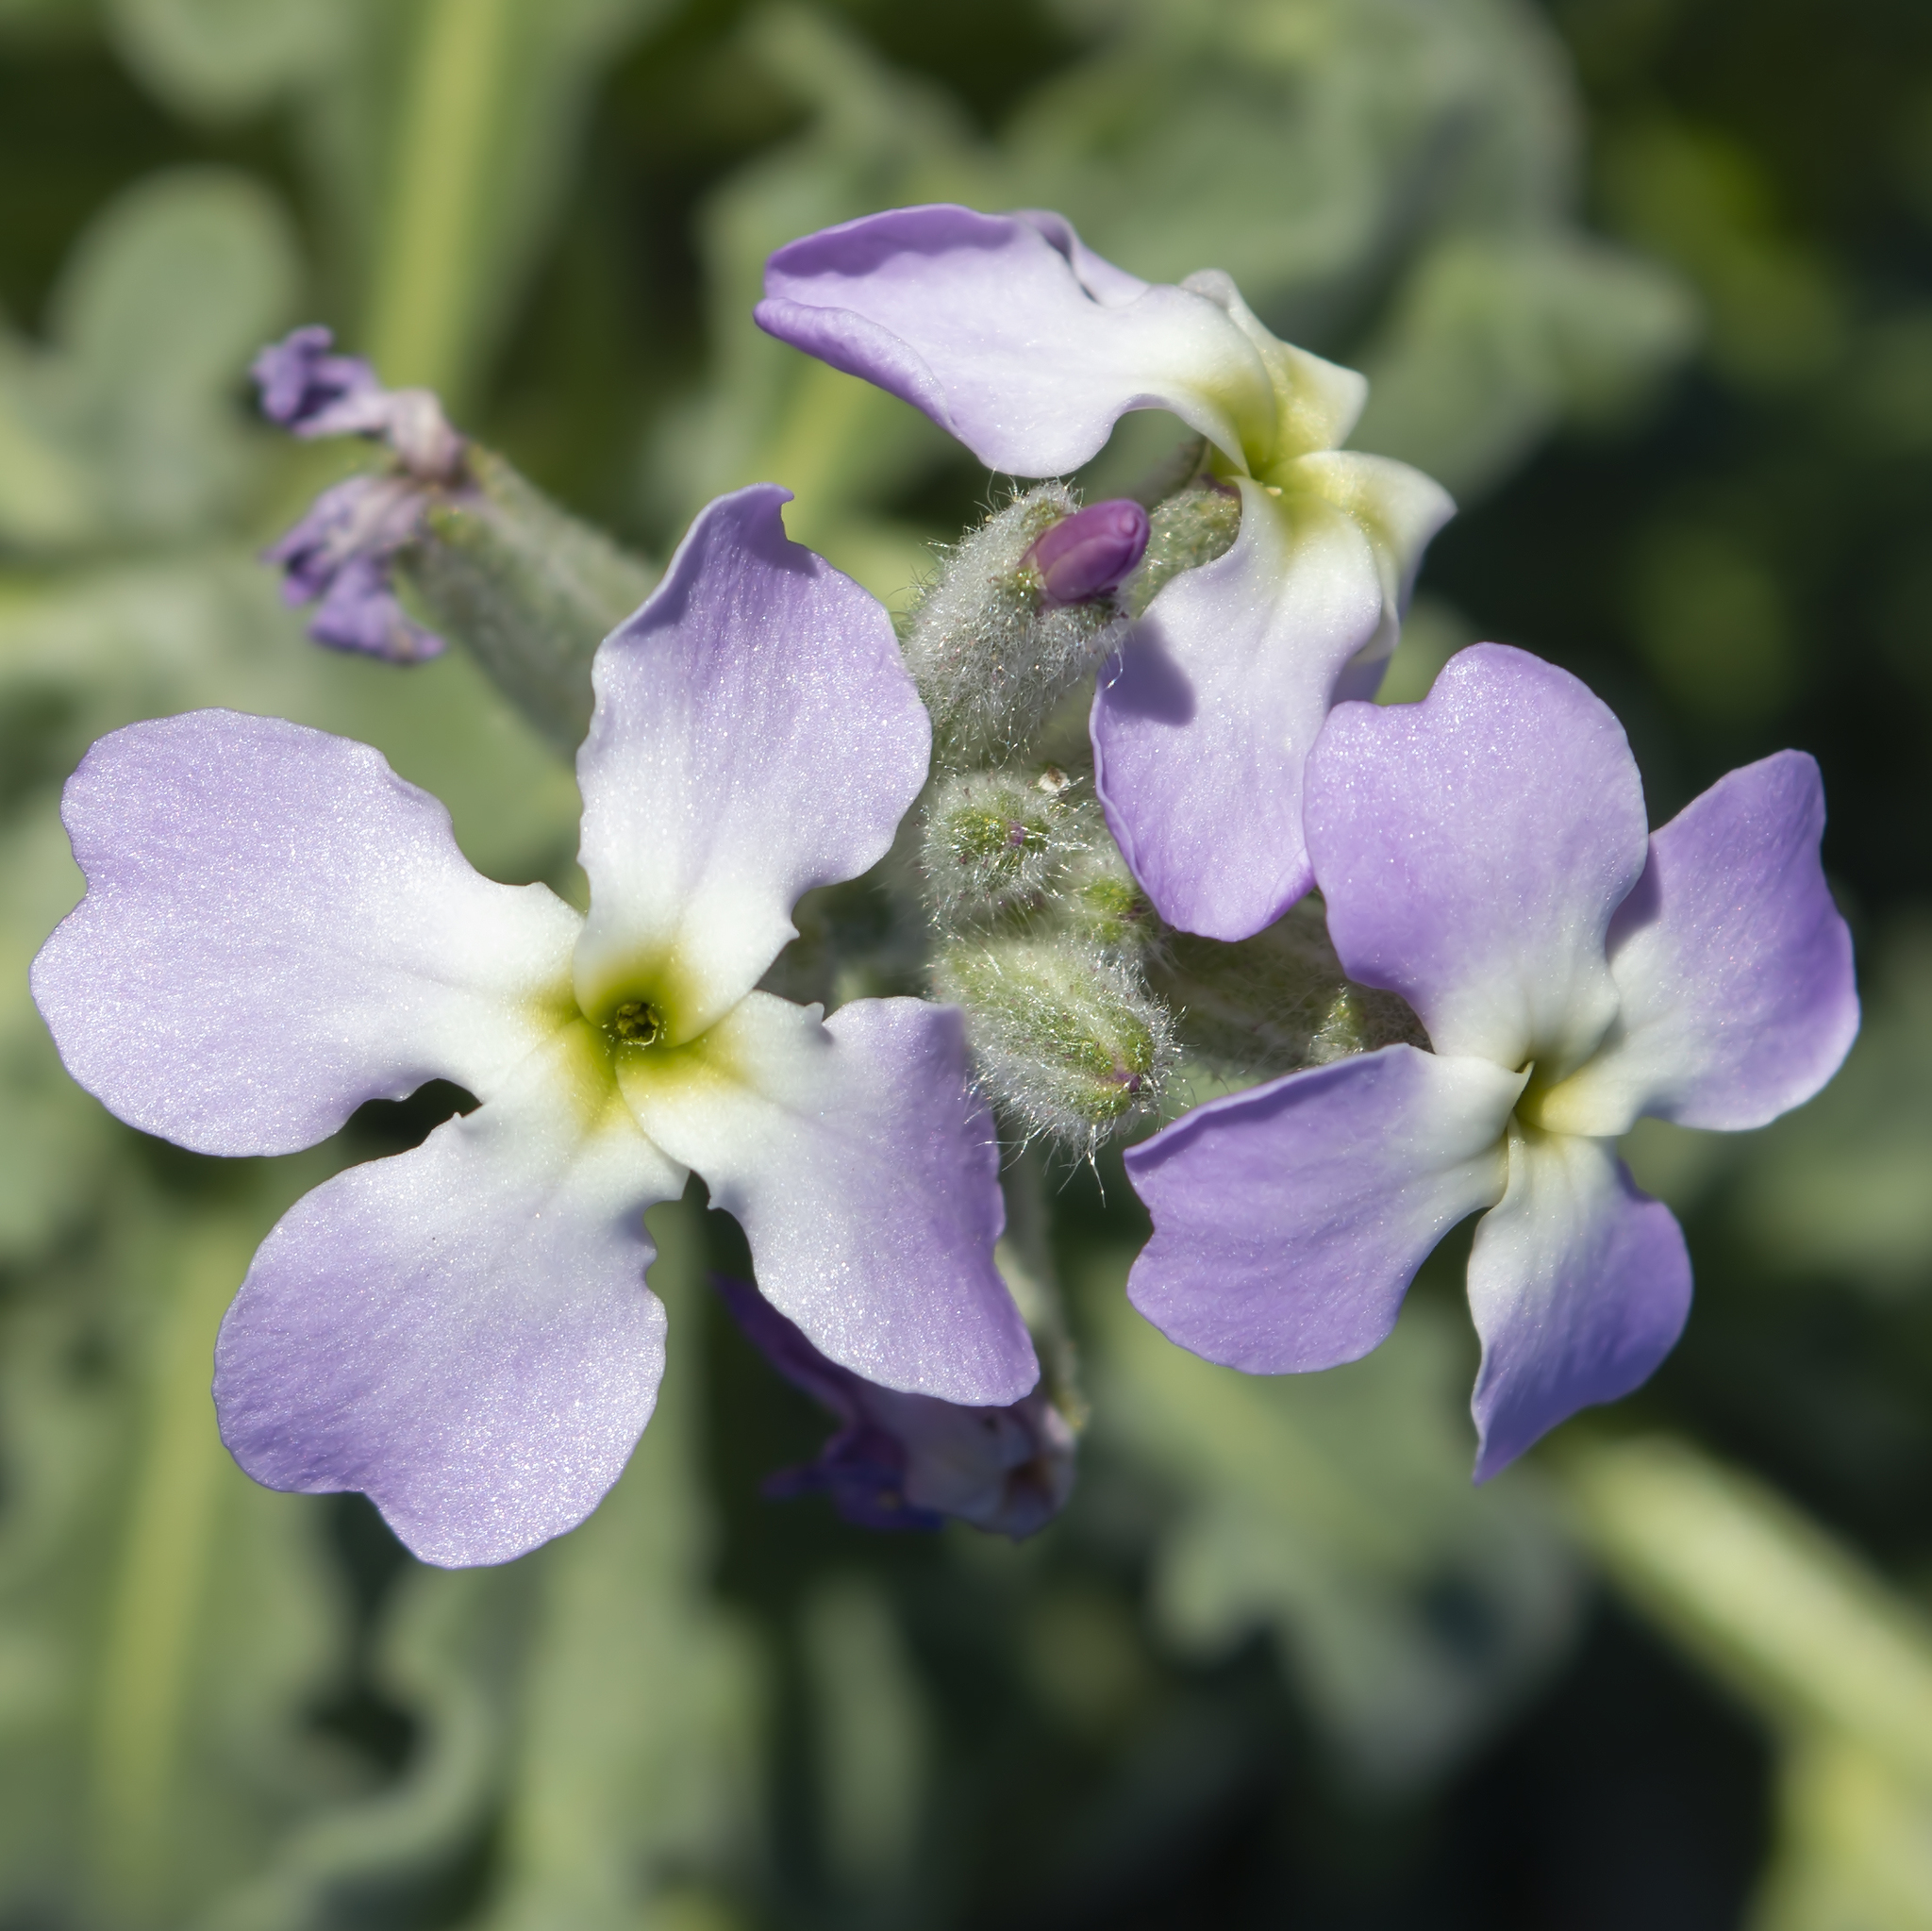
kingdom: Plantae
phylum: Tracheophyta
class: Magnoliopsida
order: Brassicales
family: Brassicaceae
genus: Matthiola
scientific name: Matthiola sinuata
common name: Sea stock
